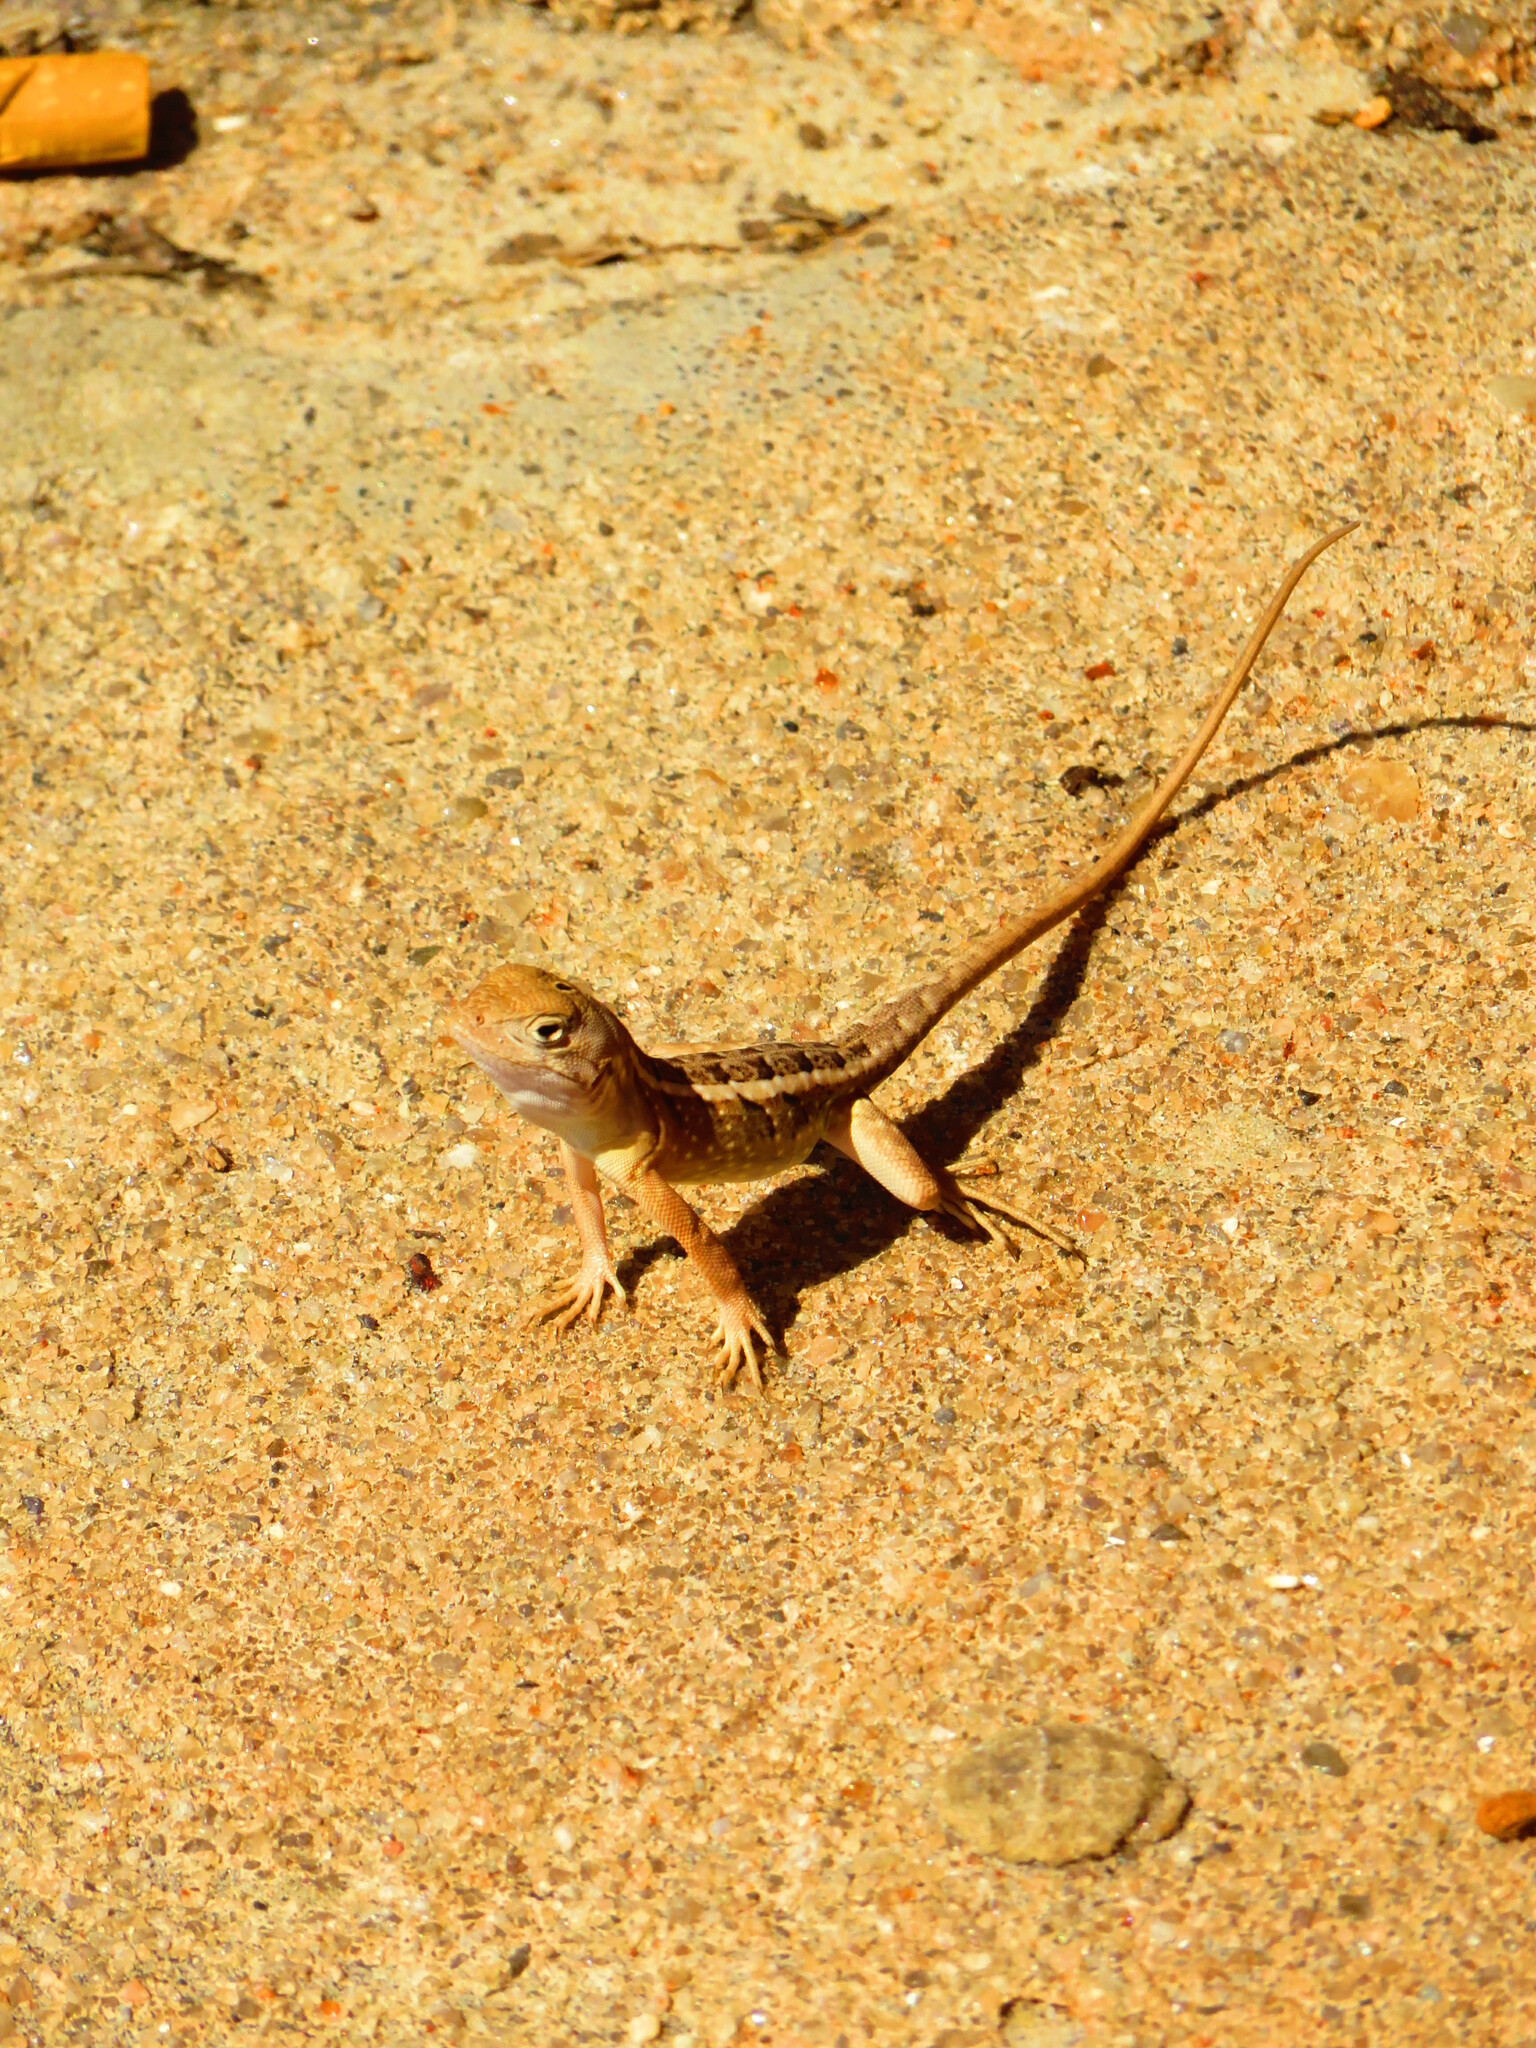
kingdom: Animalia
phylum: Chordata
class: Squamata
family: Opluridae
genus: Chalarodon
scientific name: Chalarodon madagascariensis
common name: Madagascar iguana
